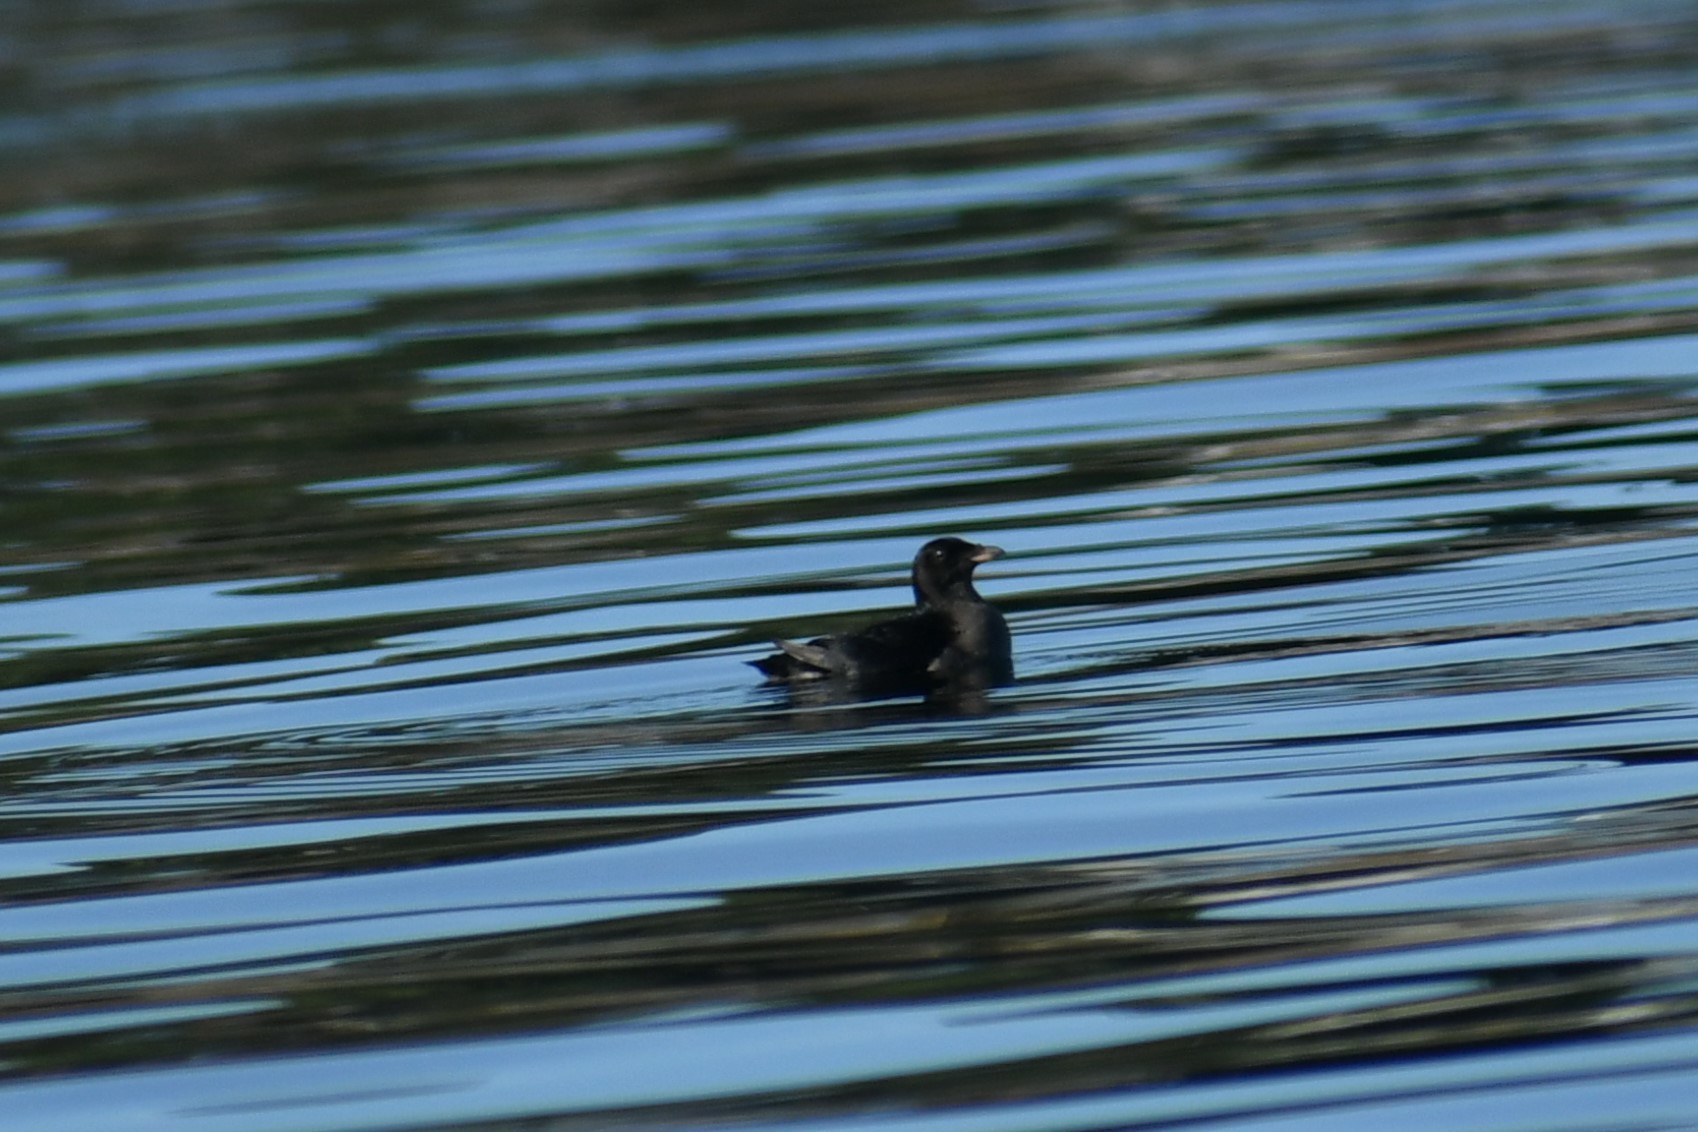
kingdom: Animalia
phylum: Chordata
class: Aves
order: Charadriiformes
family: Alcidae
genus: Cerorhinca
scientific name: Cerorhinca monocerata
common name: Rhinoceros auklet
